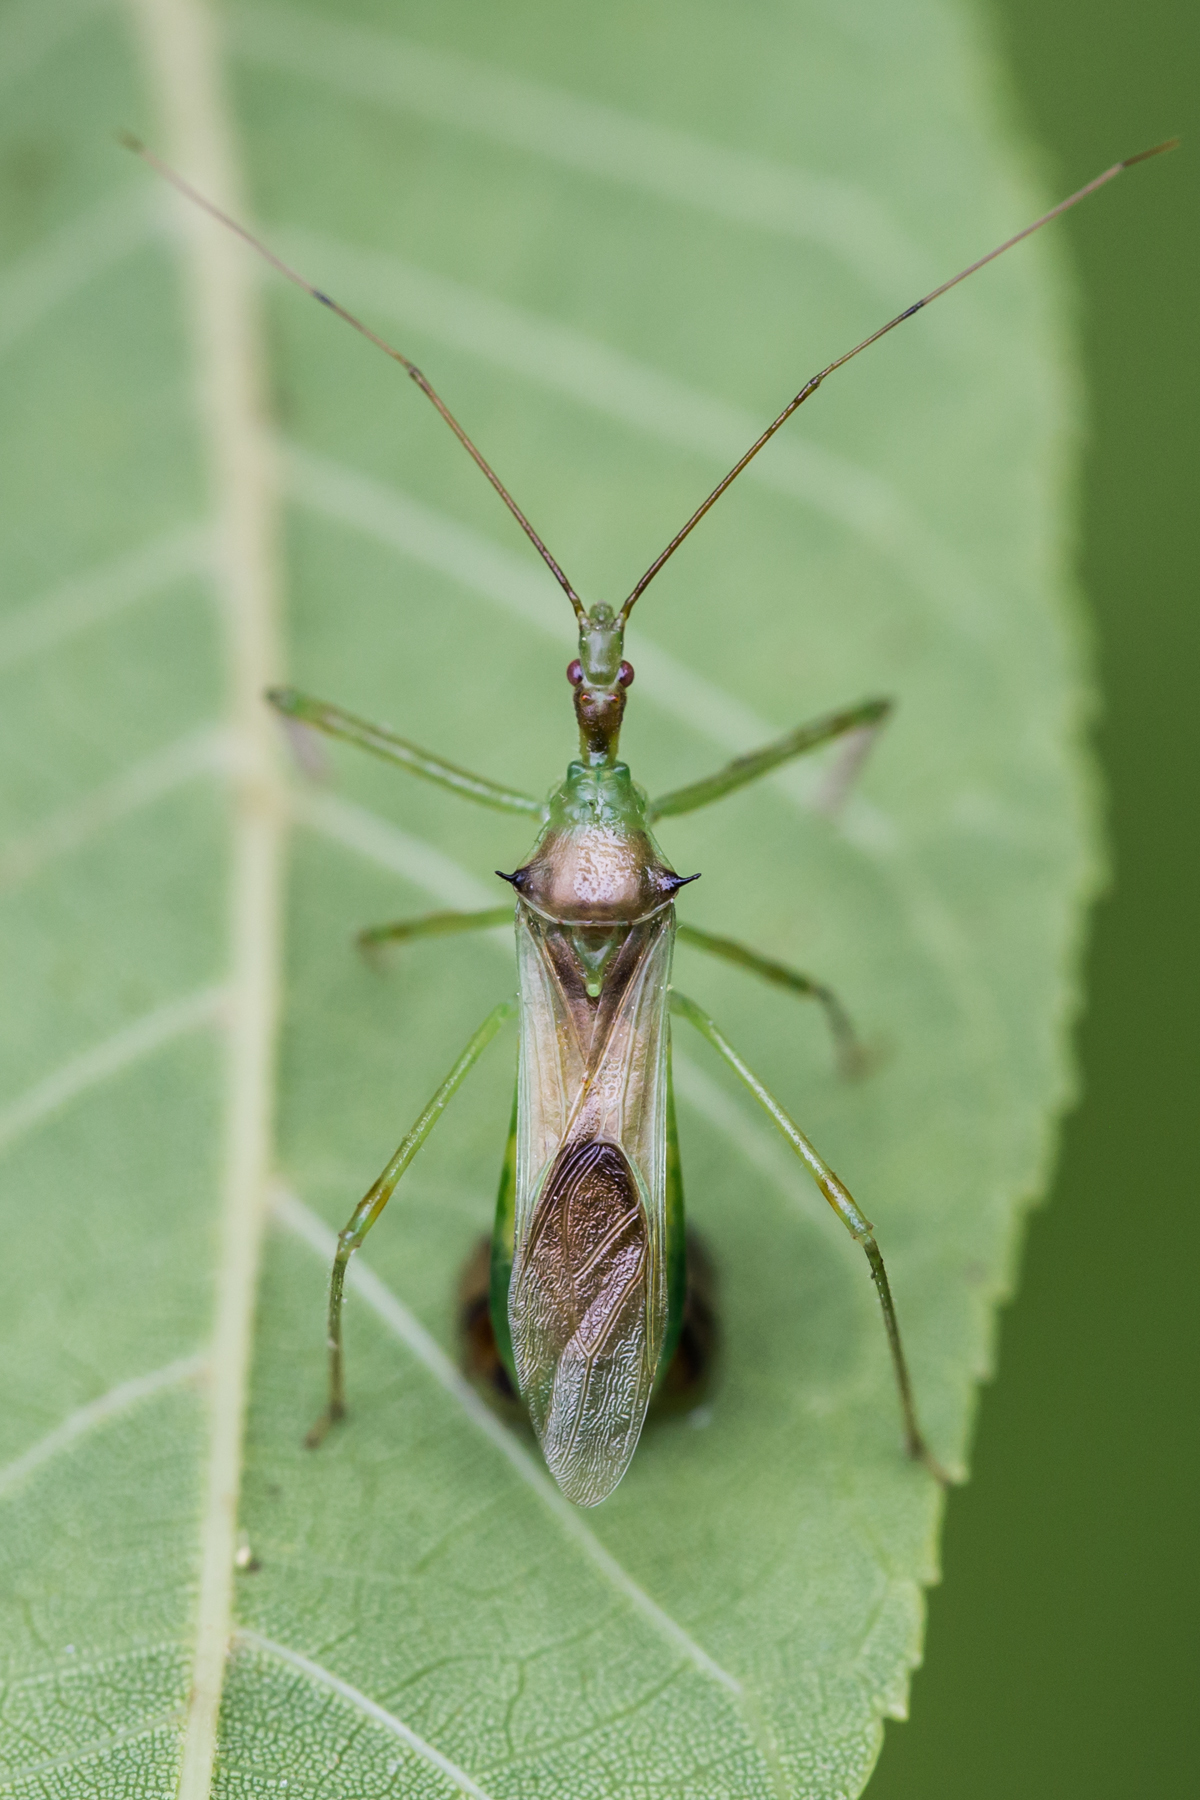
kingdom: Animalia
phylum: Arthropoda
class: Insecta
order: Hemiptera
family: Reduviidae
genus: Zelus
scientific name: Zelus luridus
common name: Pale green assassin bug
